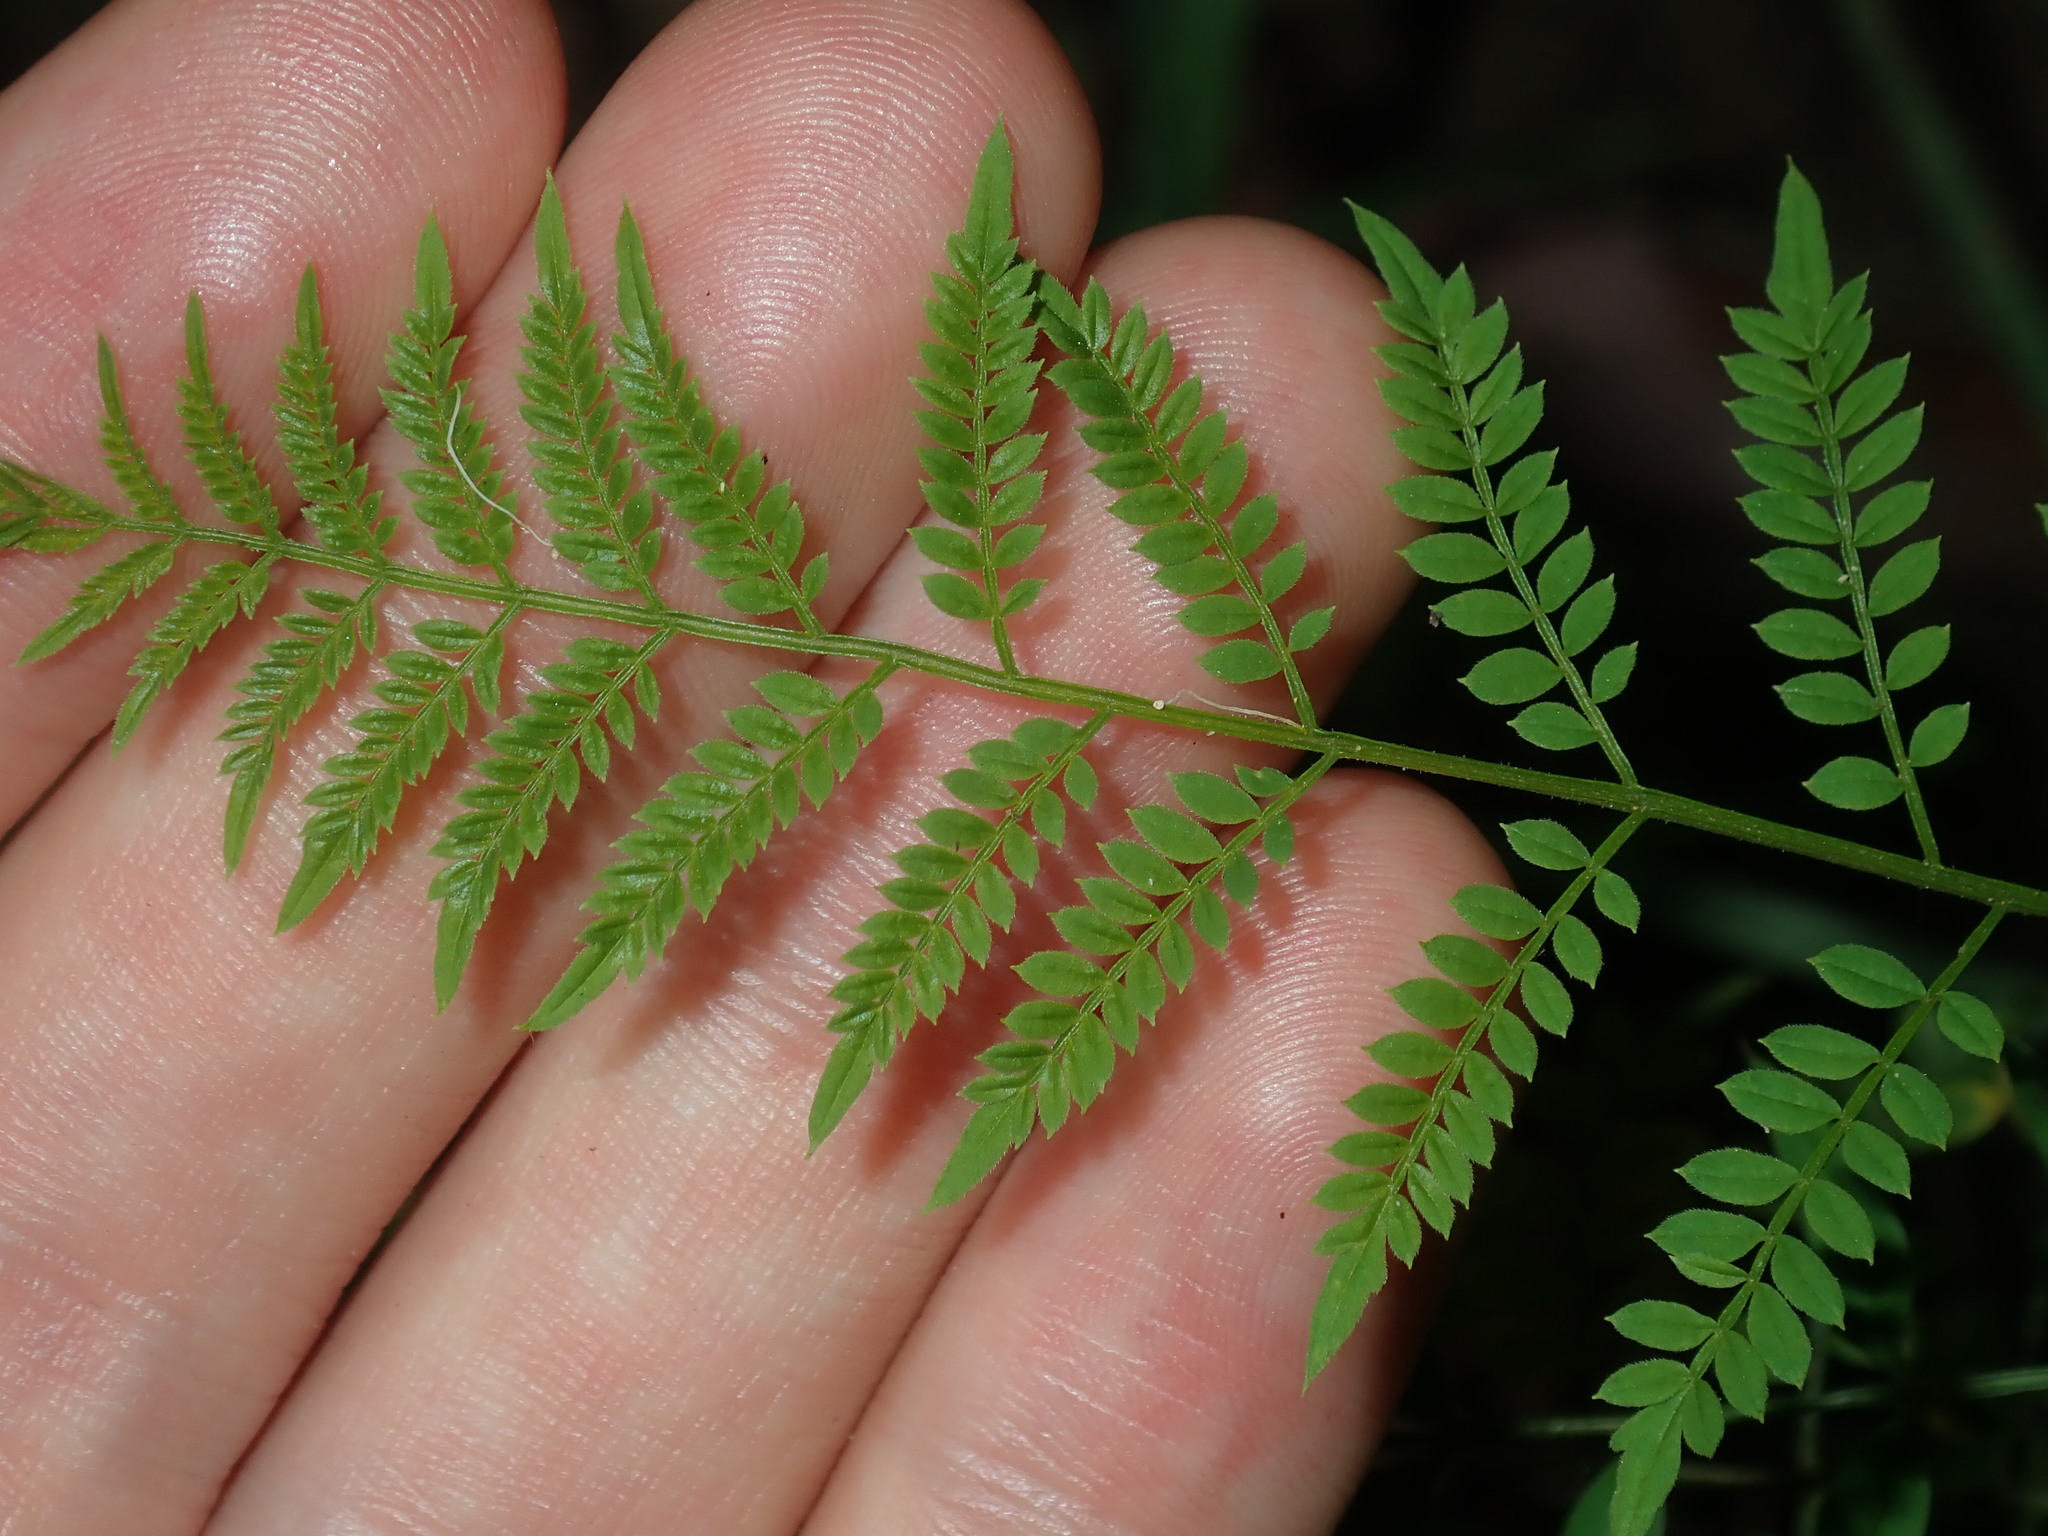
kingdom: Plantae
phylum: Tracheophyta
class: Magnoliopsida
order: Lamiales
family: Bignoniaceae
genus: Jacaranda
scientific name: Jacaranda mimosifolia
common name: Black poui
